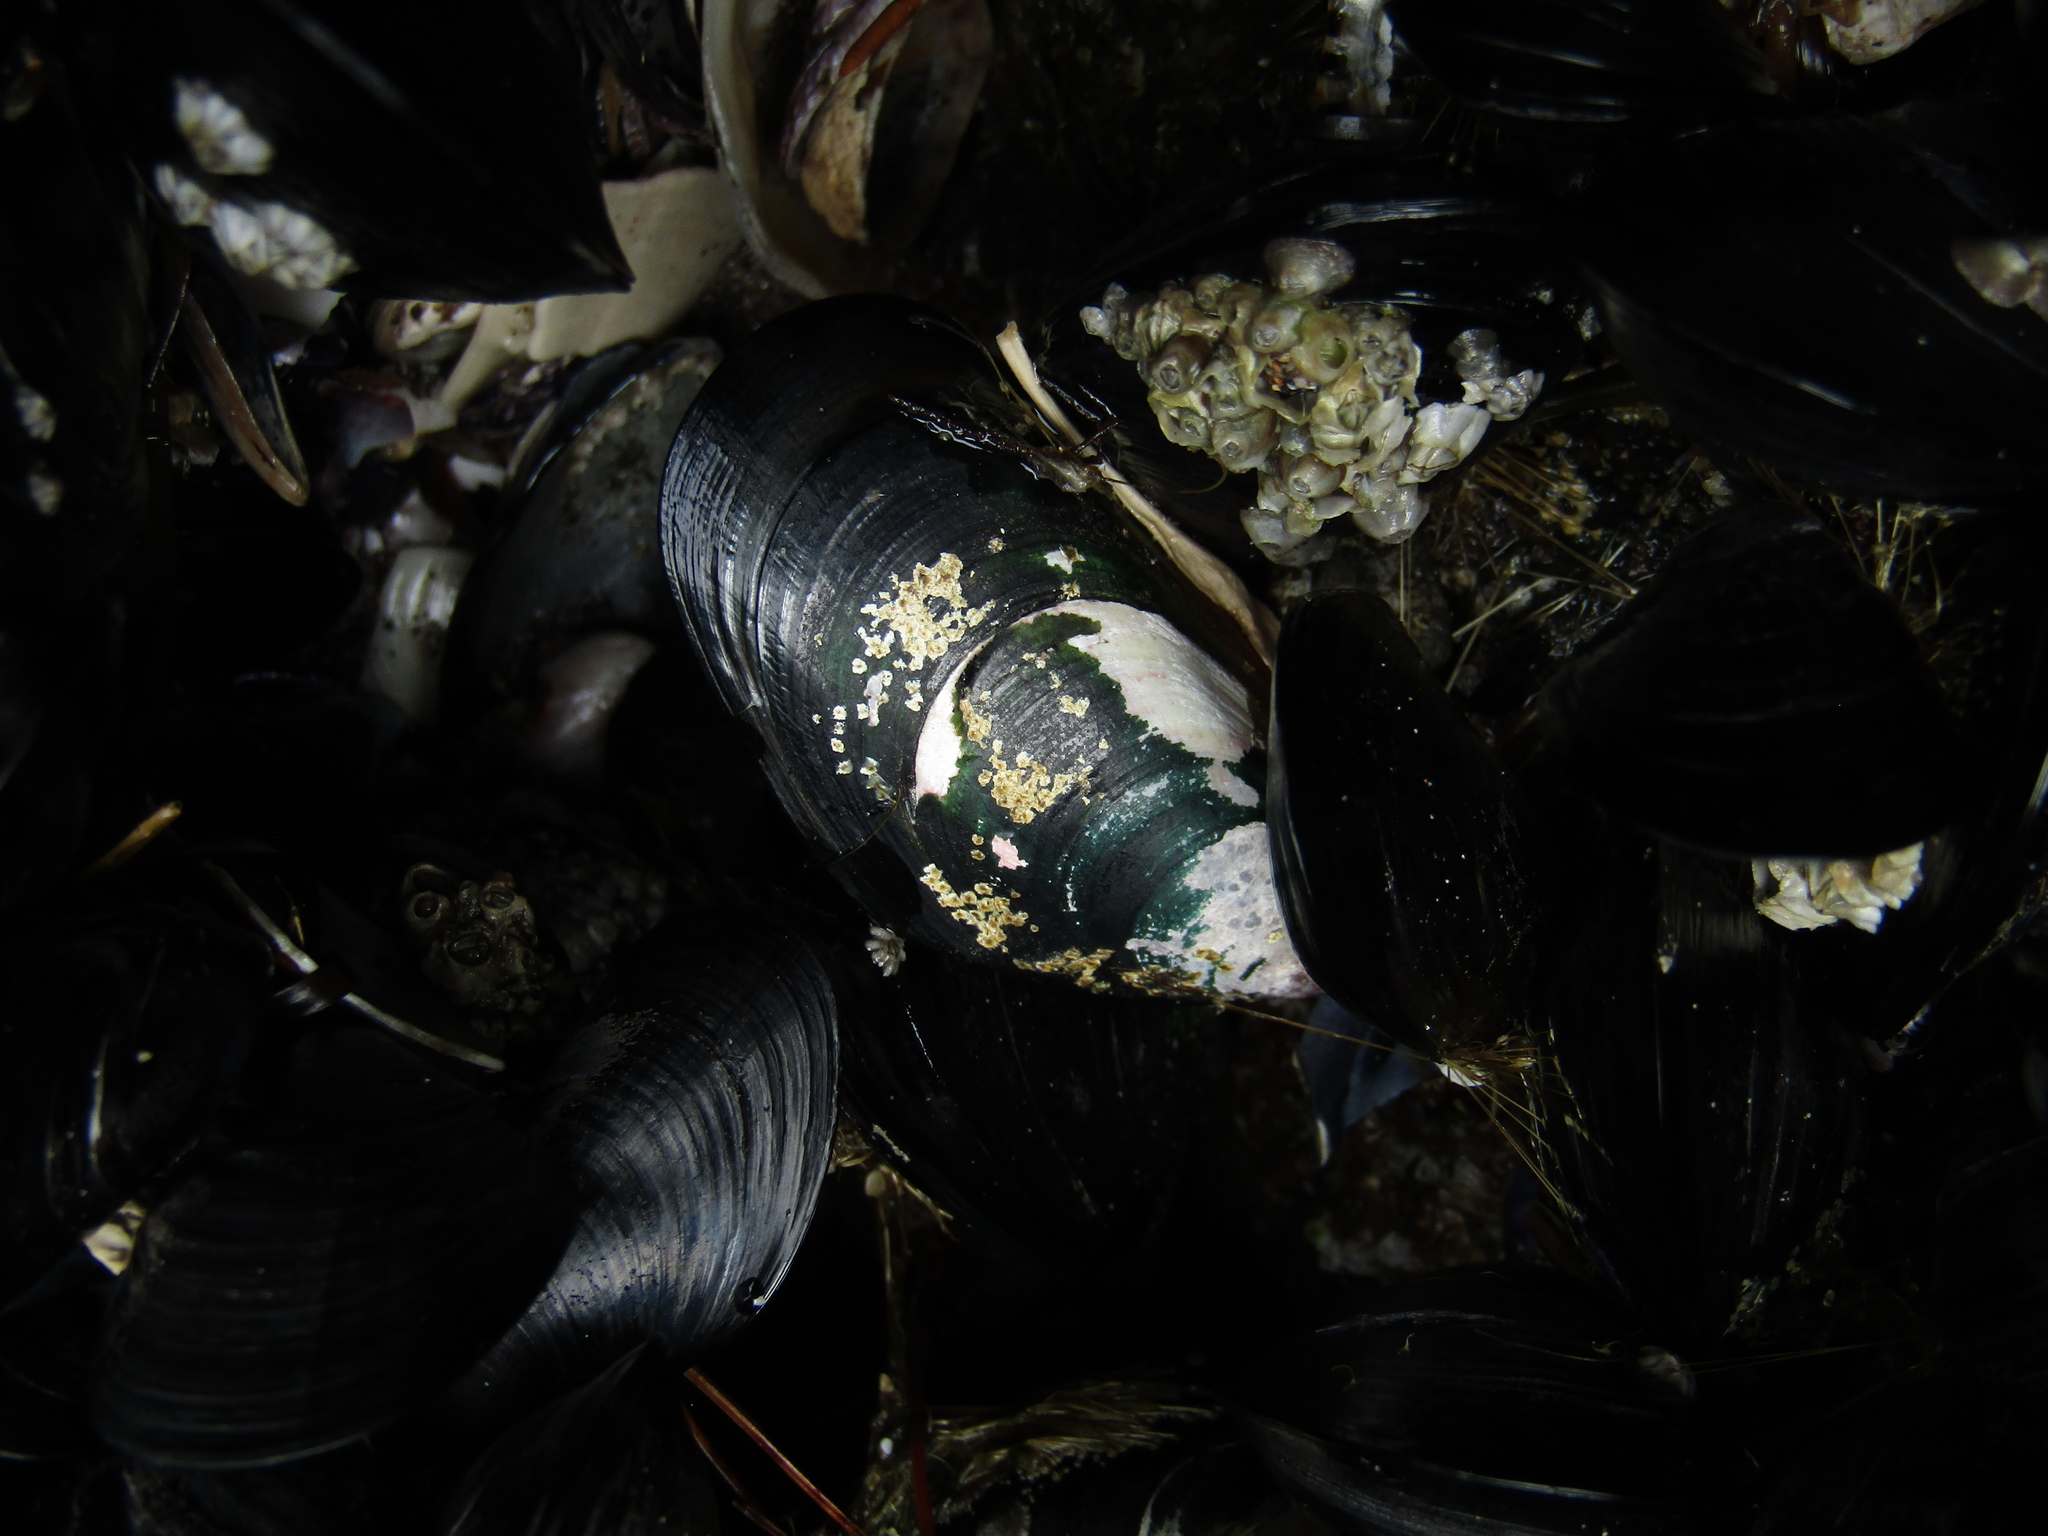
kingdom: Animalia
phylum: Mollusca
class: Bivalvia
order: Mytilida
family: Mytilidae
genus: Perna
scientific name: Perna canaliculus
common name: New zealand greenshelltm
